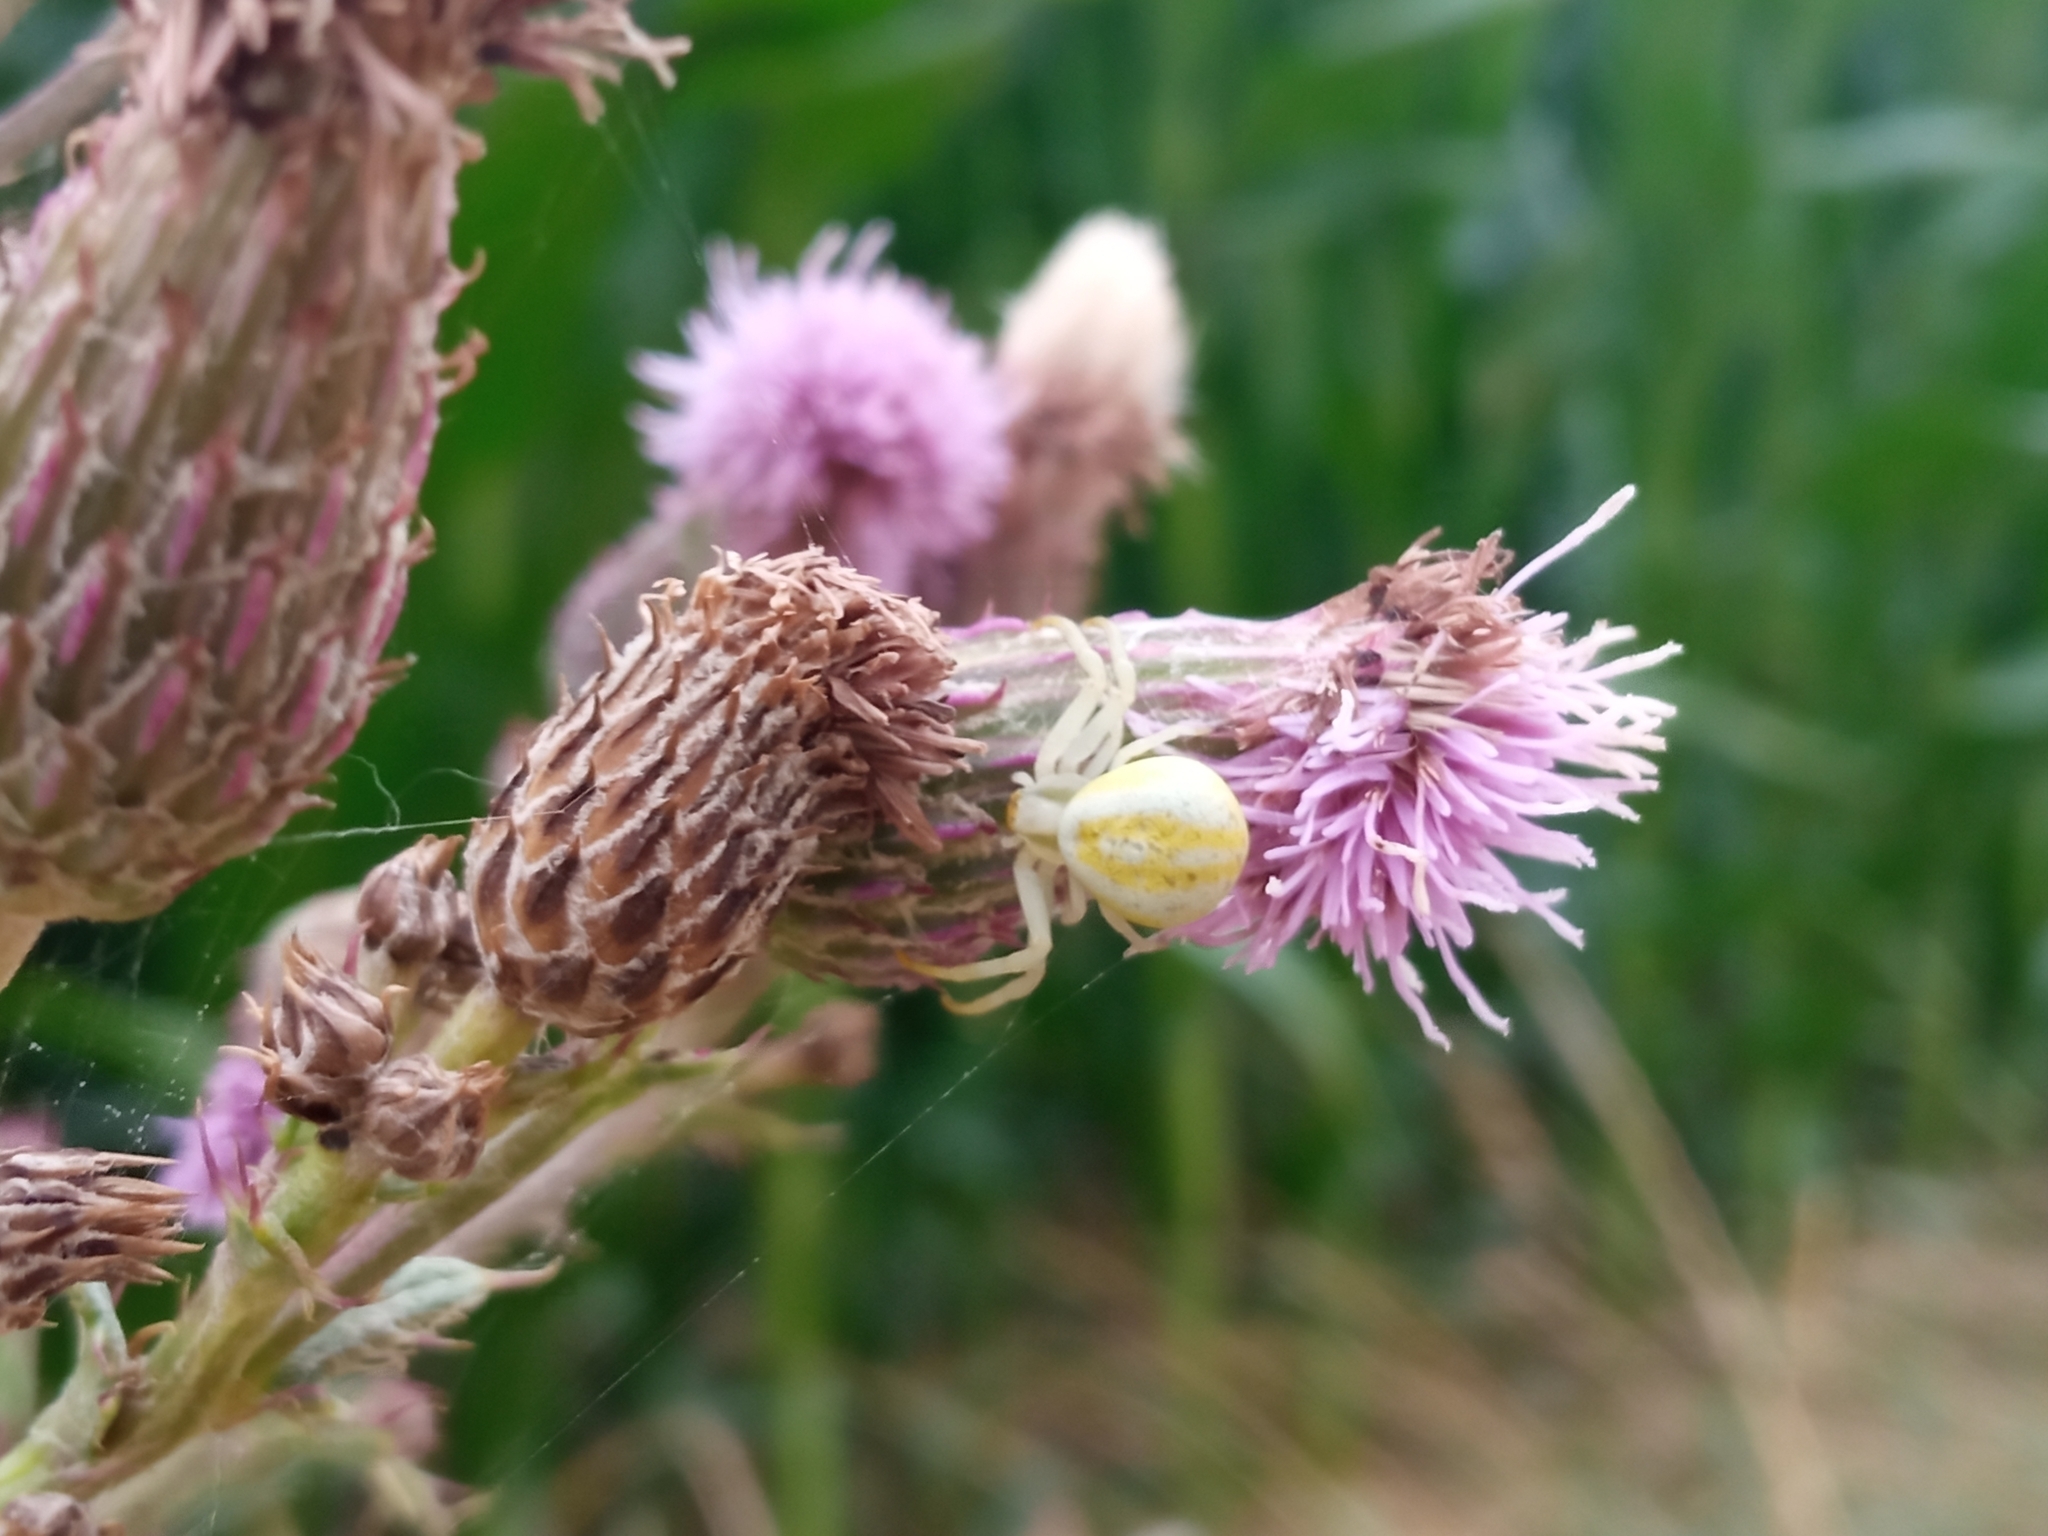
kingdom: Animalia
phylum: Arthropoda
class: Arachnida
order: Araneae
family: Thomisidae
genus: Misumena
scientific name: Misumena vatia
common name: Goldenrod crab spider
